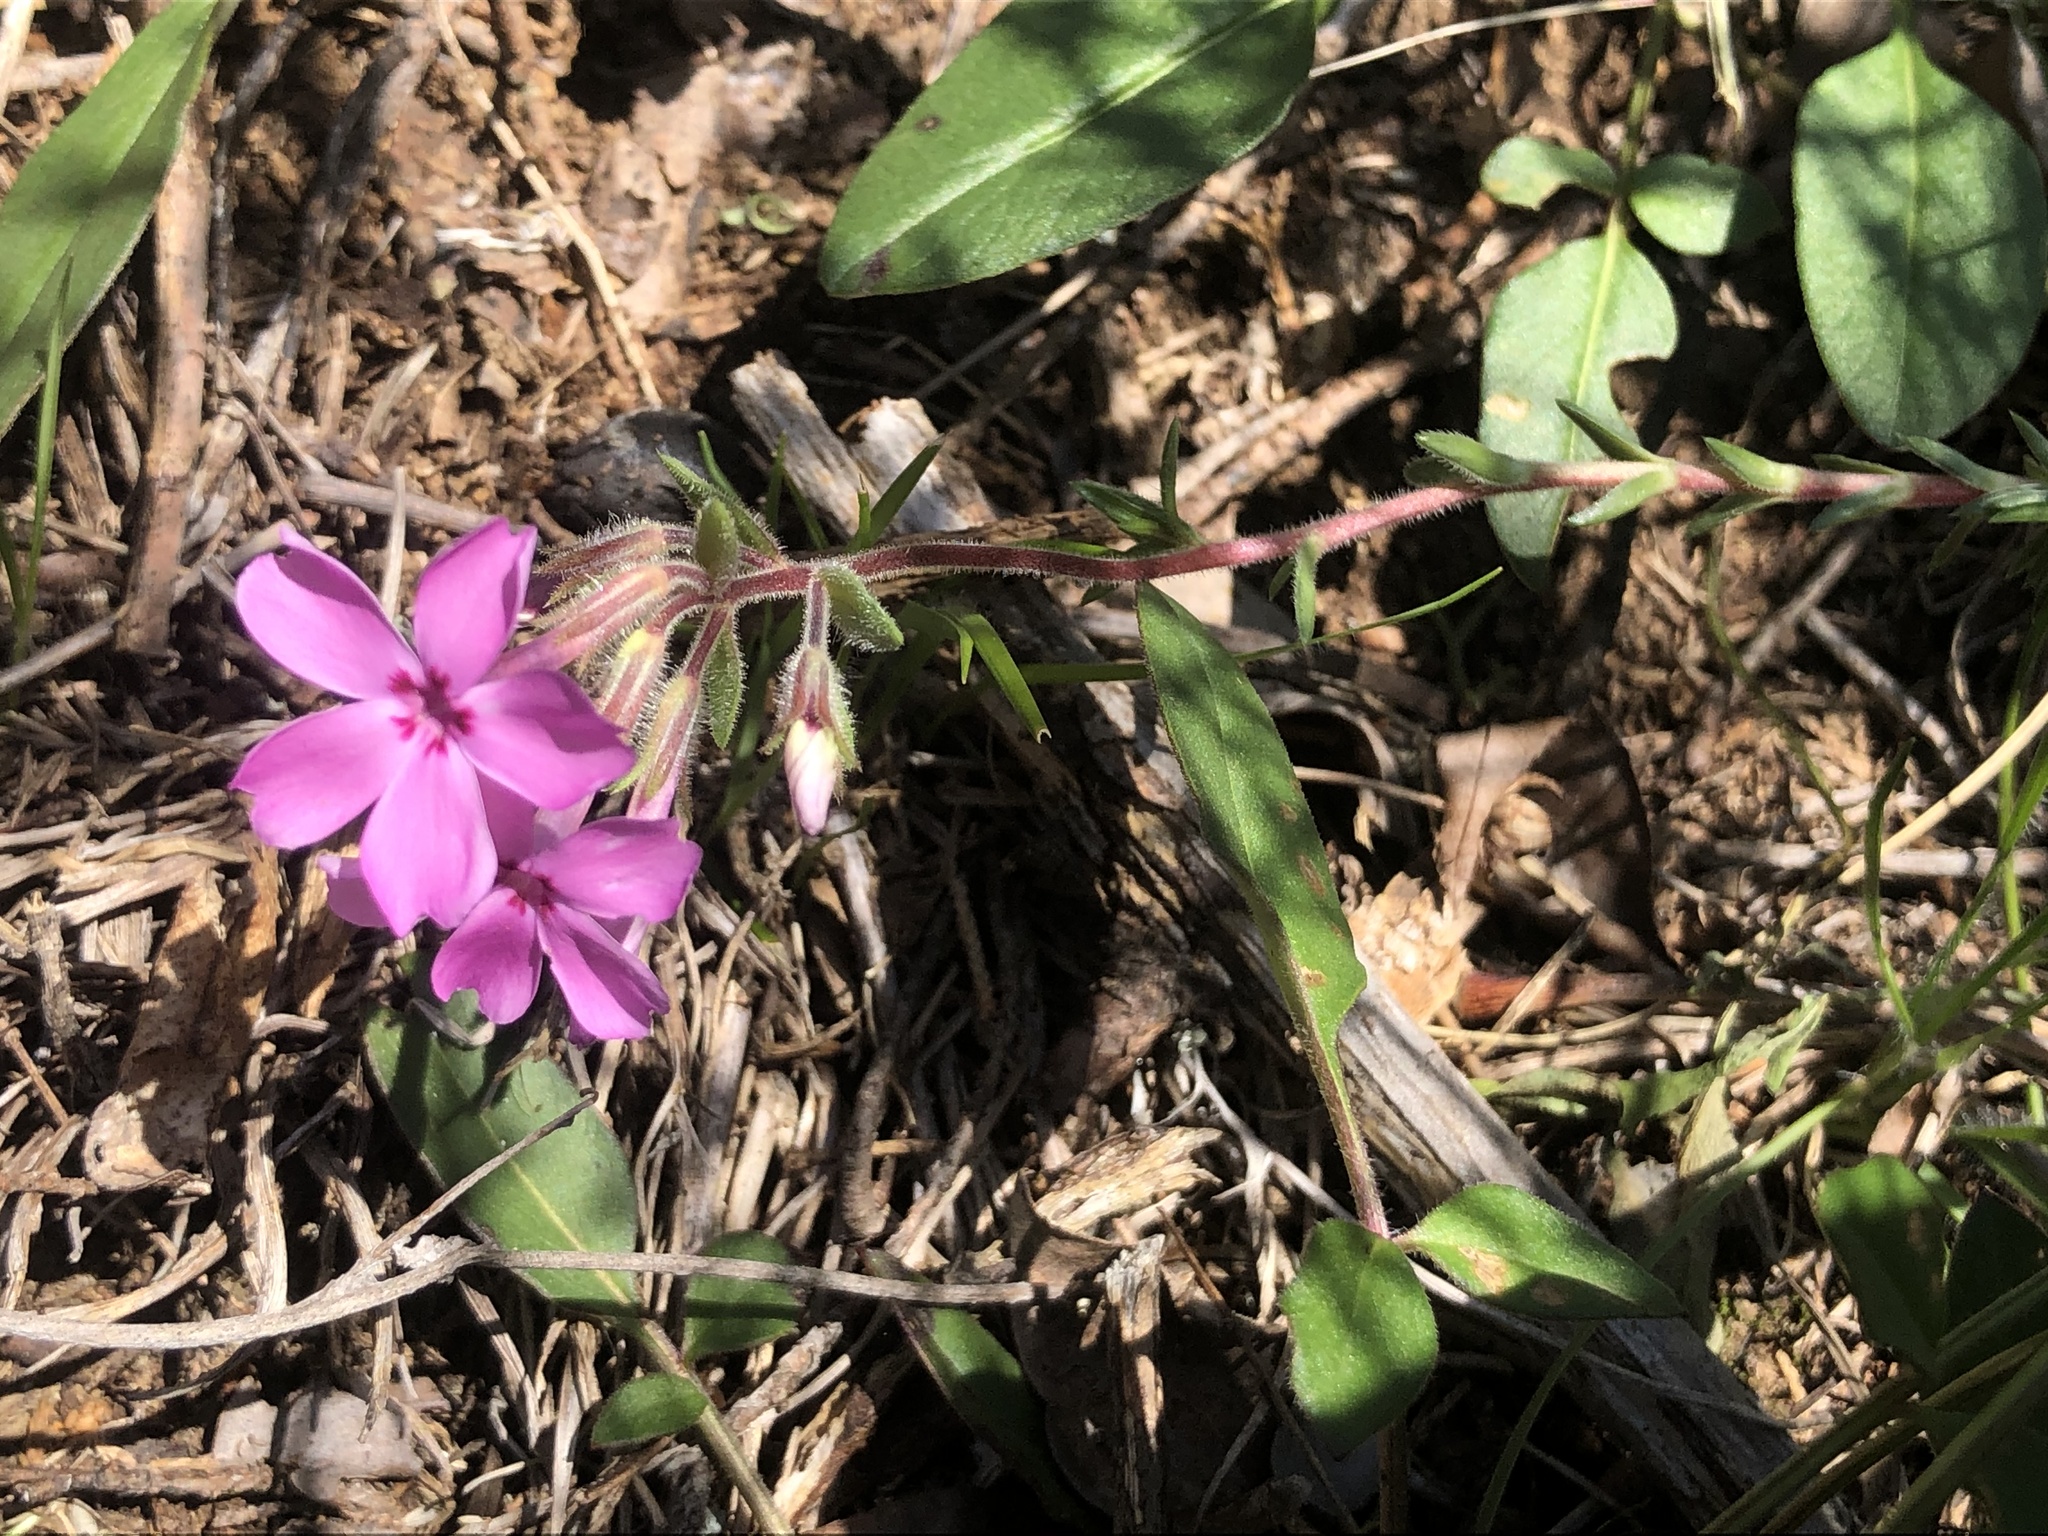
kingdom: Plantae
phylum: Tracheophyta
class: Magnoliopsida
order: Ericales
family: Polemoniaceae
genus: Phlox
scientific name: Phlox nivalis
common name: Trailing phlox
